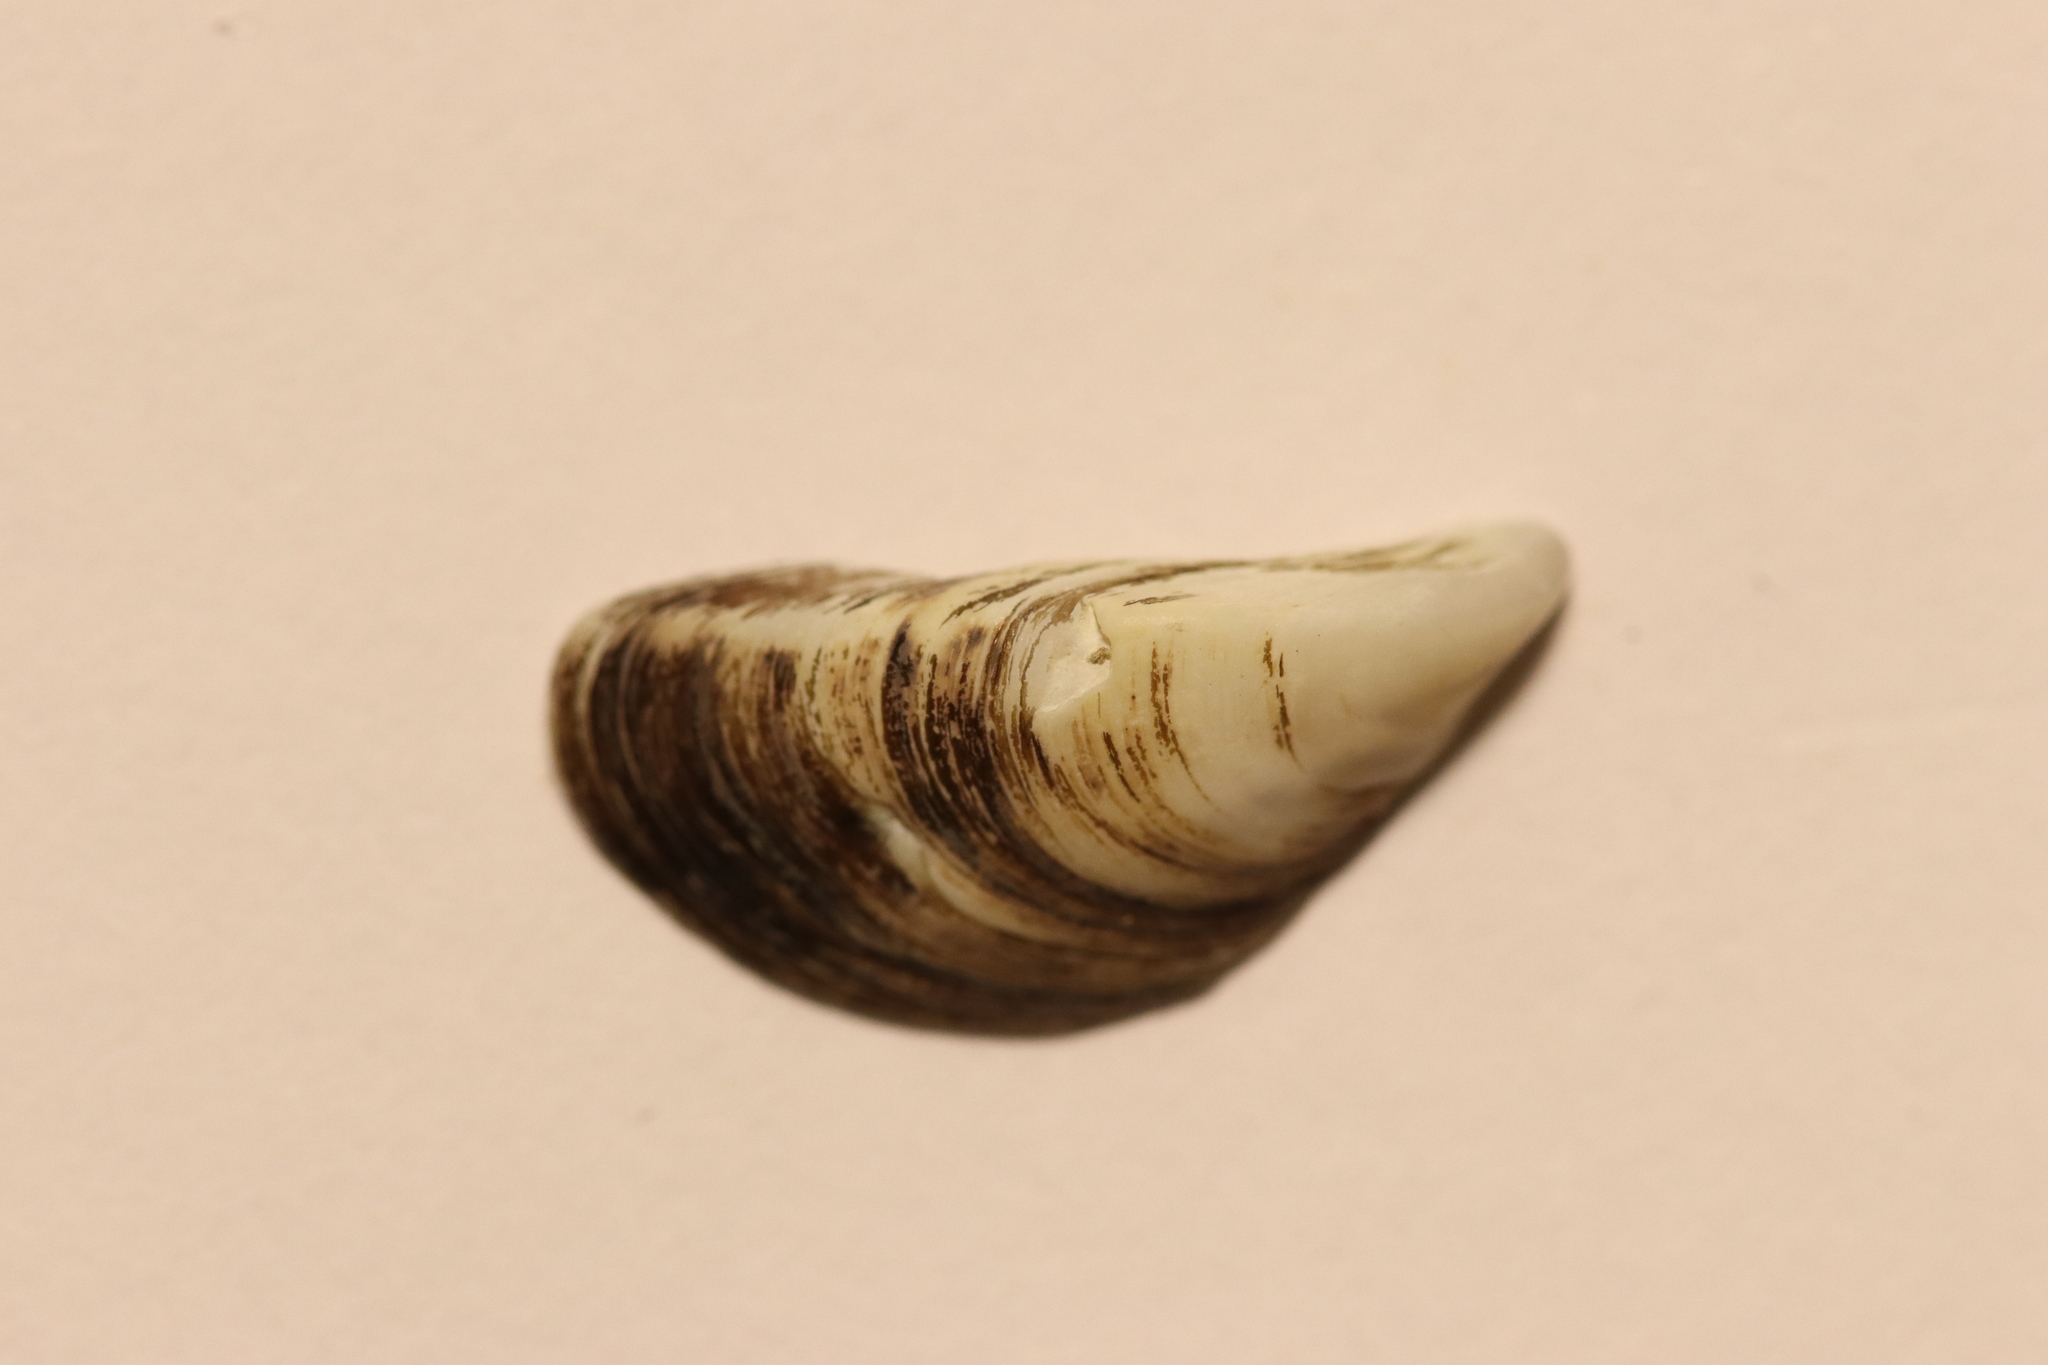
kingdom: Animalia
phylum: Mollusca
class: Bivalvia
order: Myida
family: Dreissenidae
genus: Dreissena
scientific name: Dreissena polymorpha
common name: Zebra mussel
